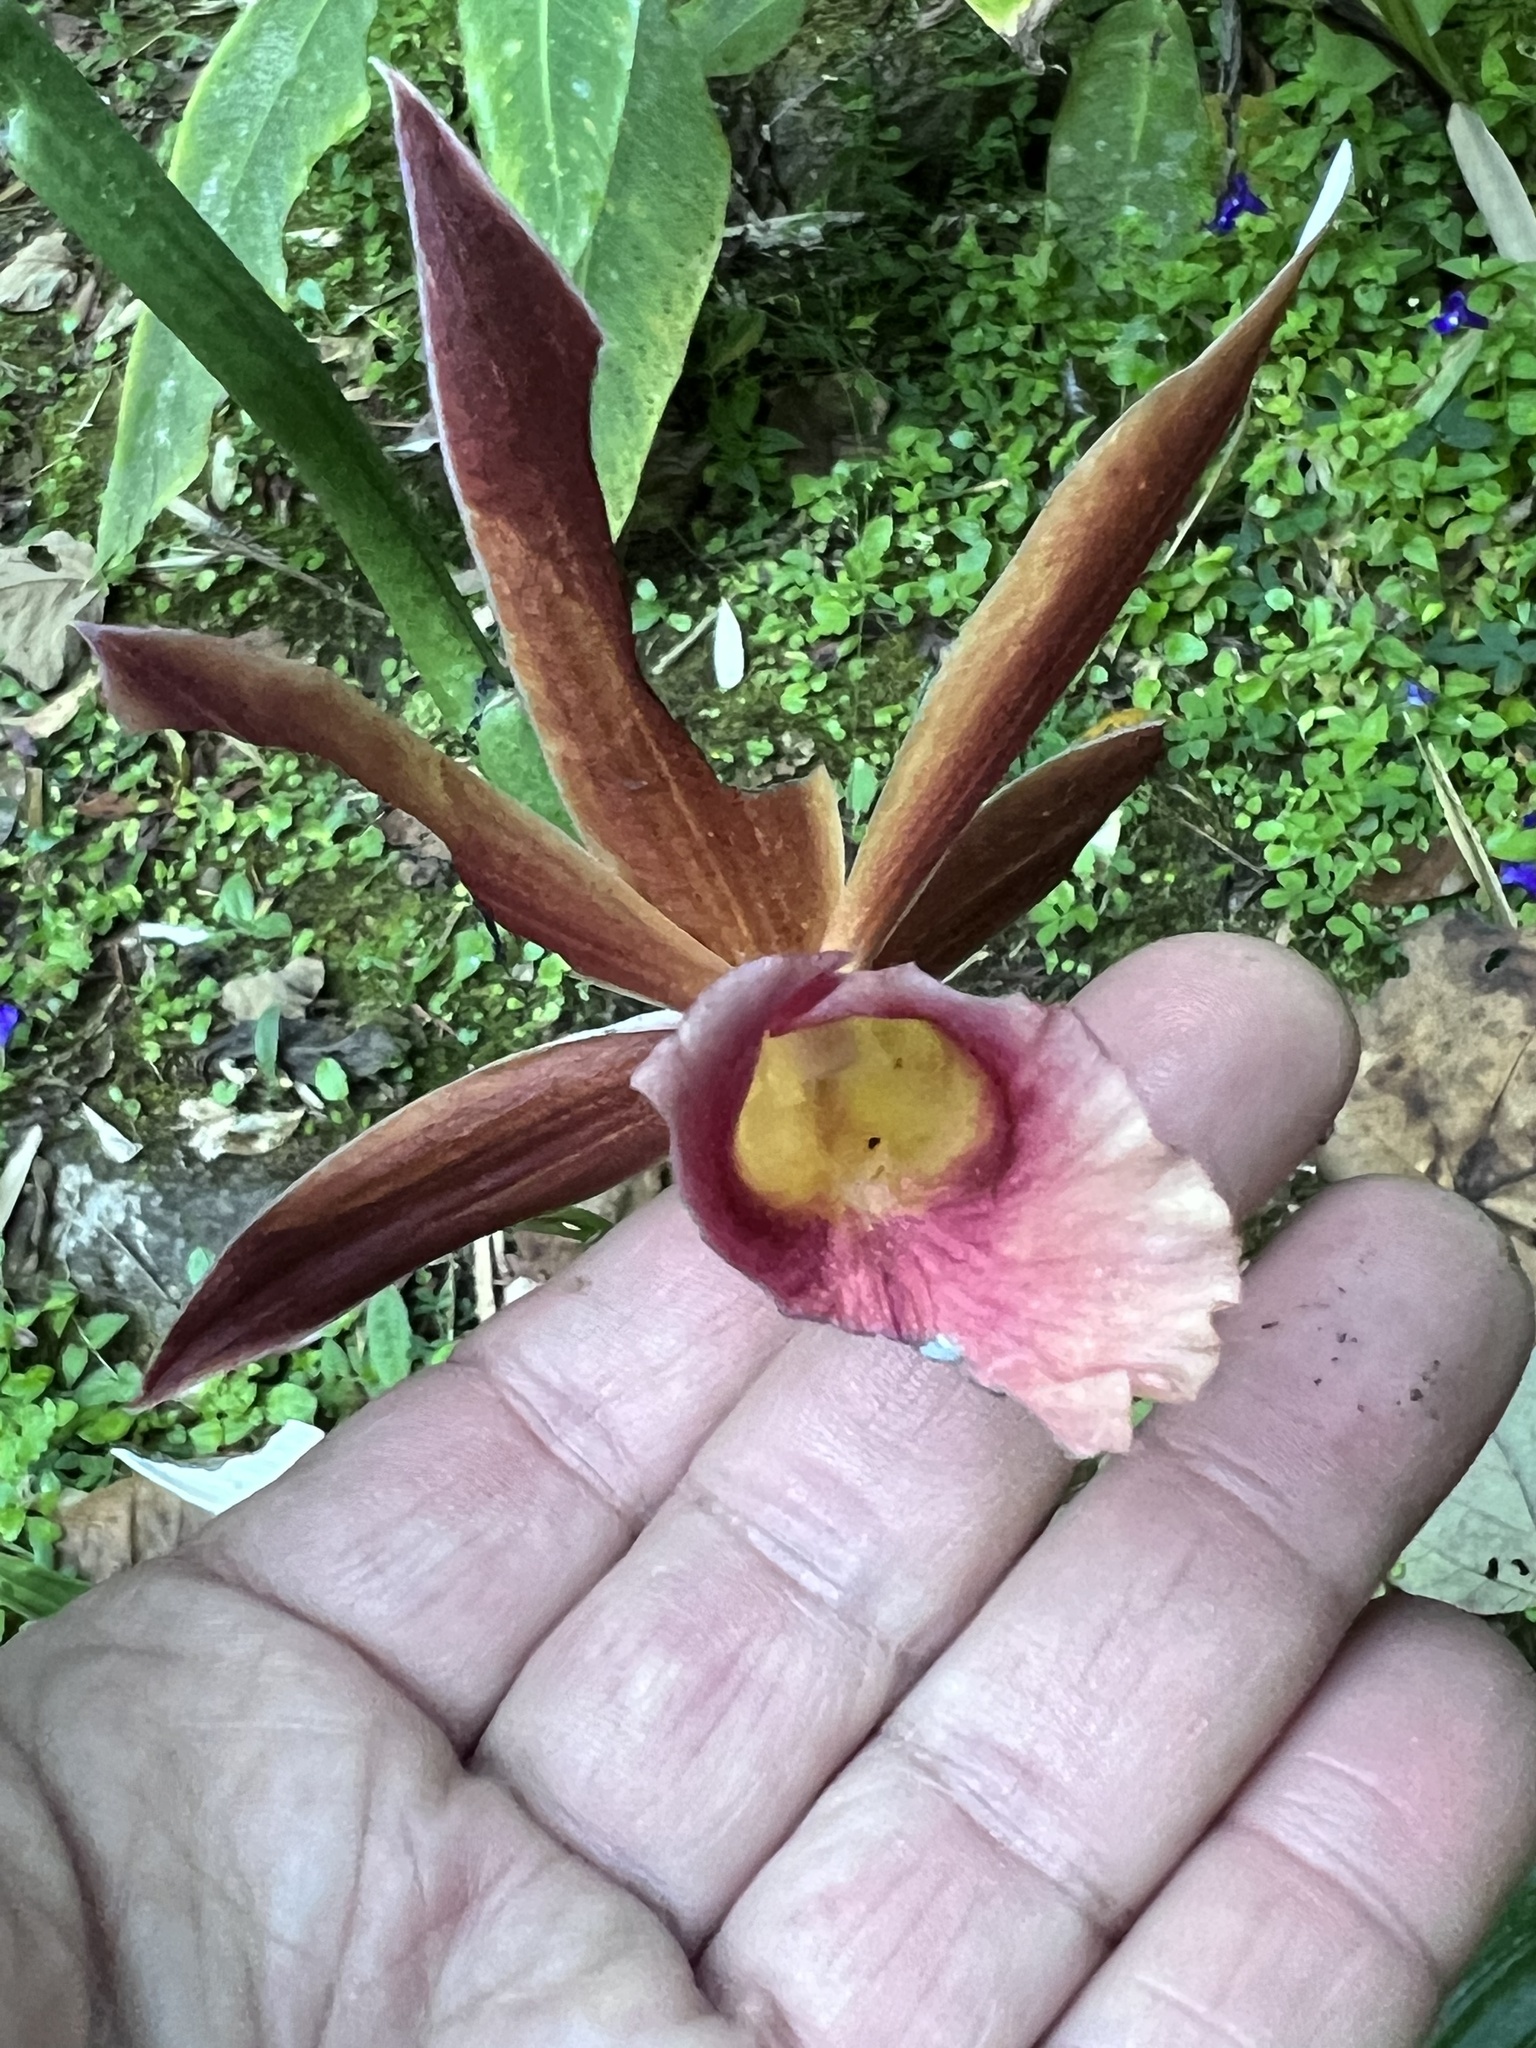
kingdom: Plantae
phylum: Tracheophyta
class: Liliopsida
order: Asparagales
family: Orchidaceae
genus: Calanthe
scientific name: Calanthe tankervilleae
